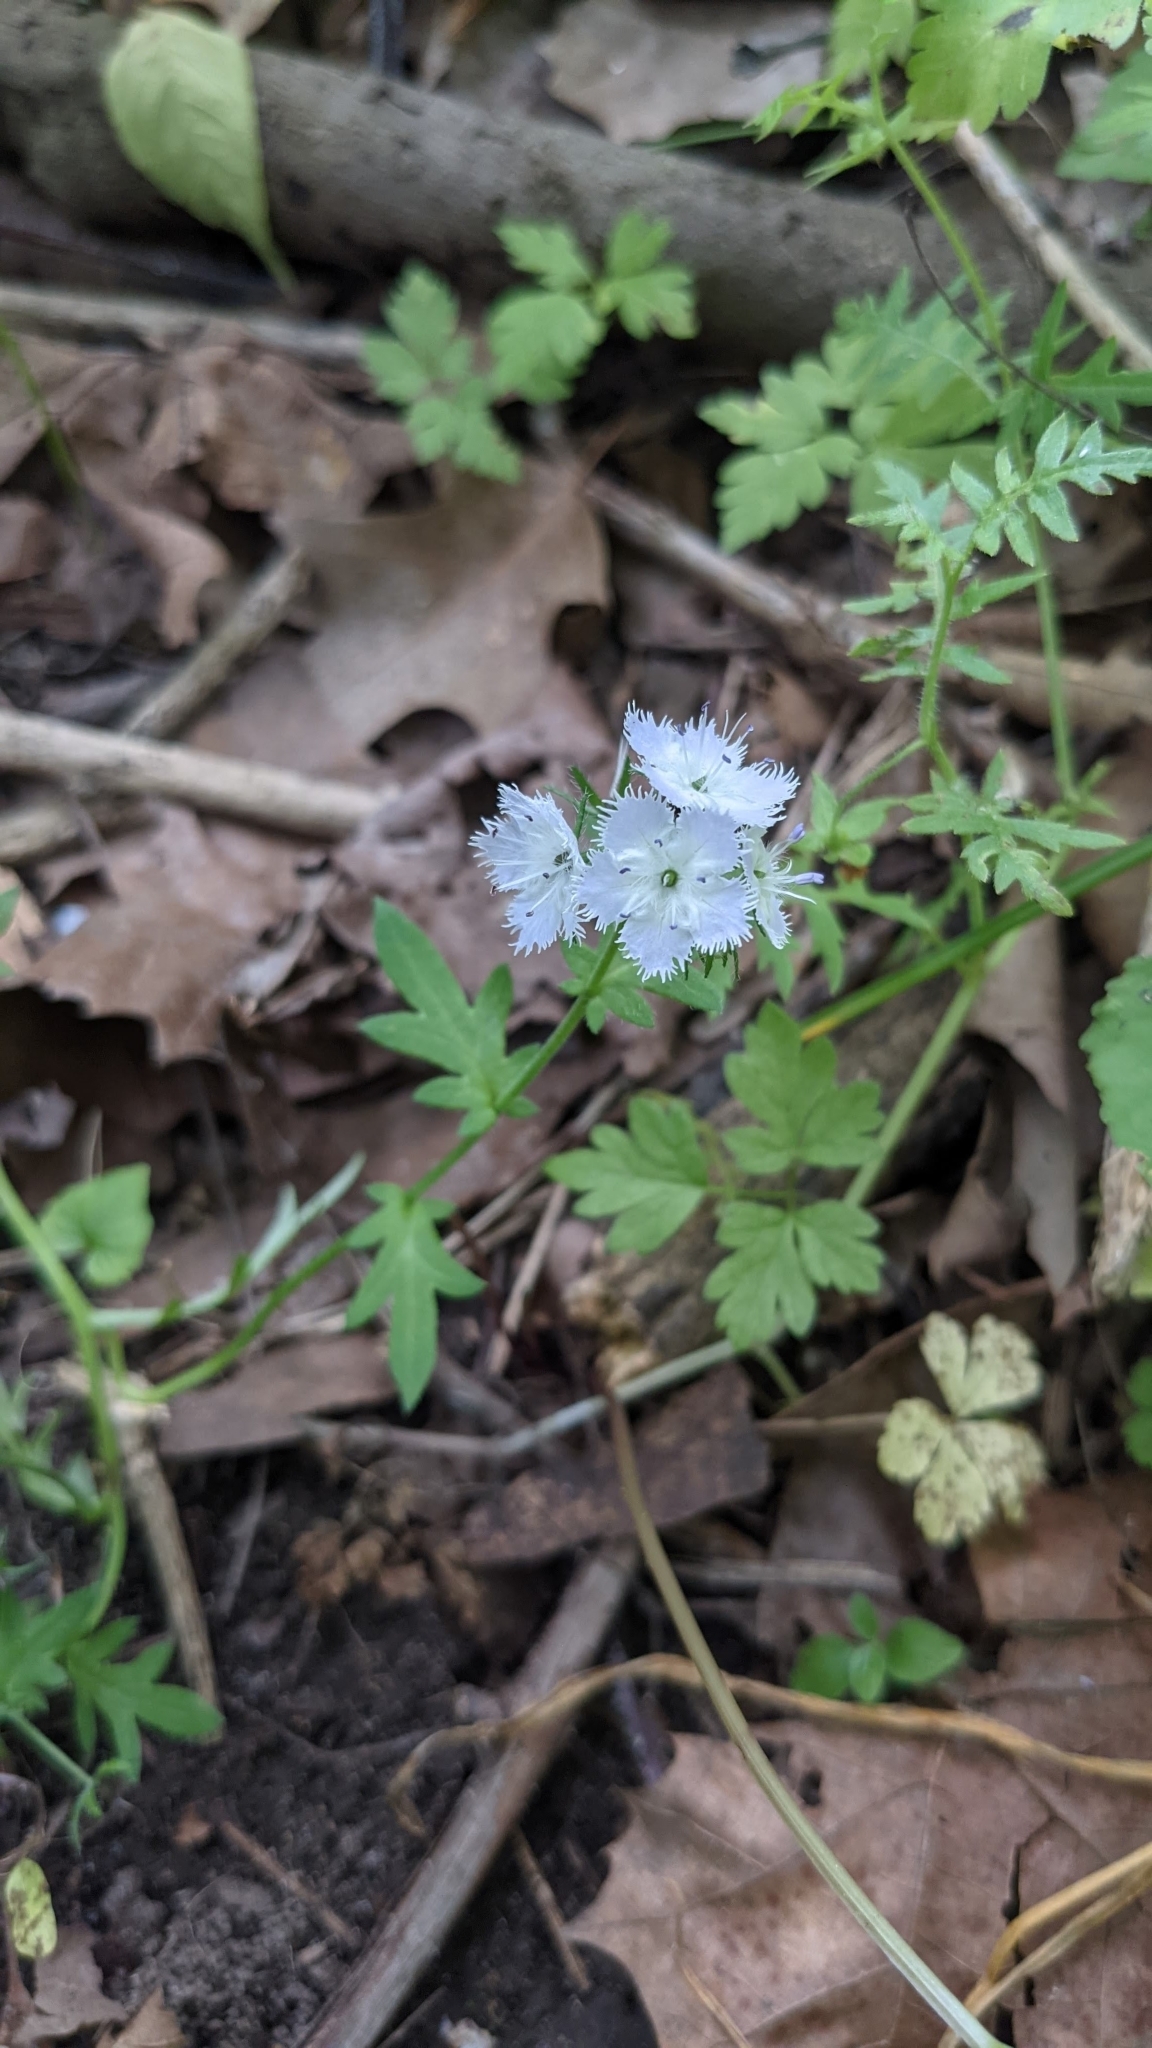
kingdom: Plantae
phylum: Tracheophyta
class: Magnoliopsida
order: Boraginales
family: Hydrophyllaceae
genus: Phacelia
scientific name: Phacelia purshii
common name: Miami-mist
